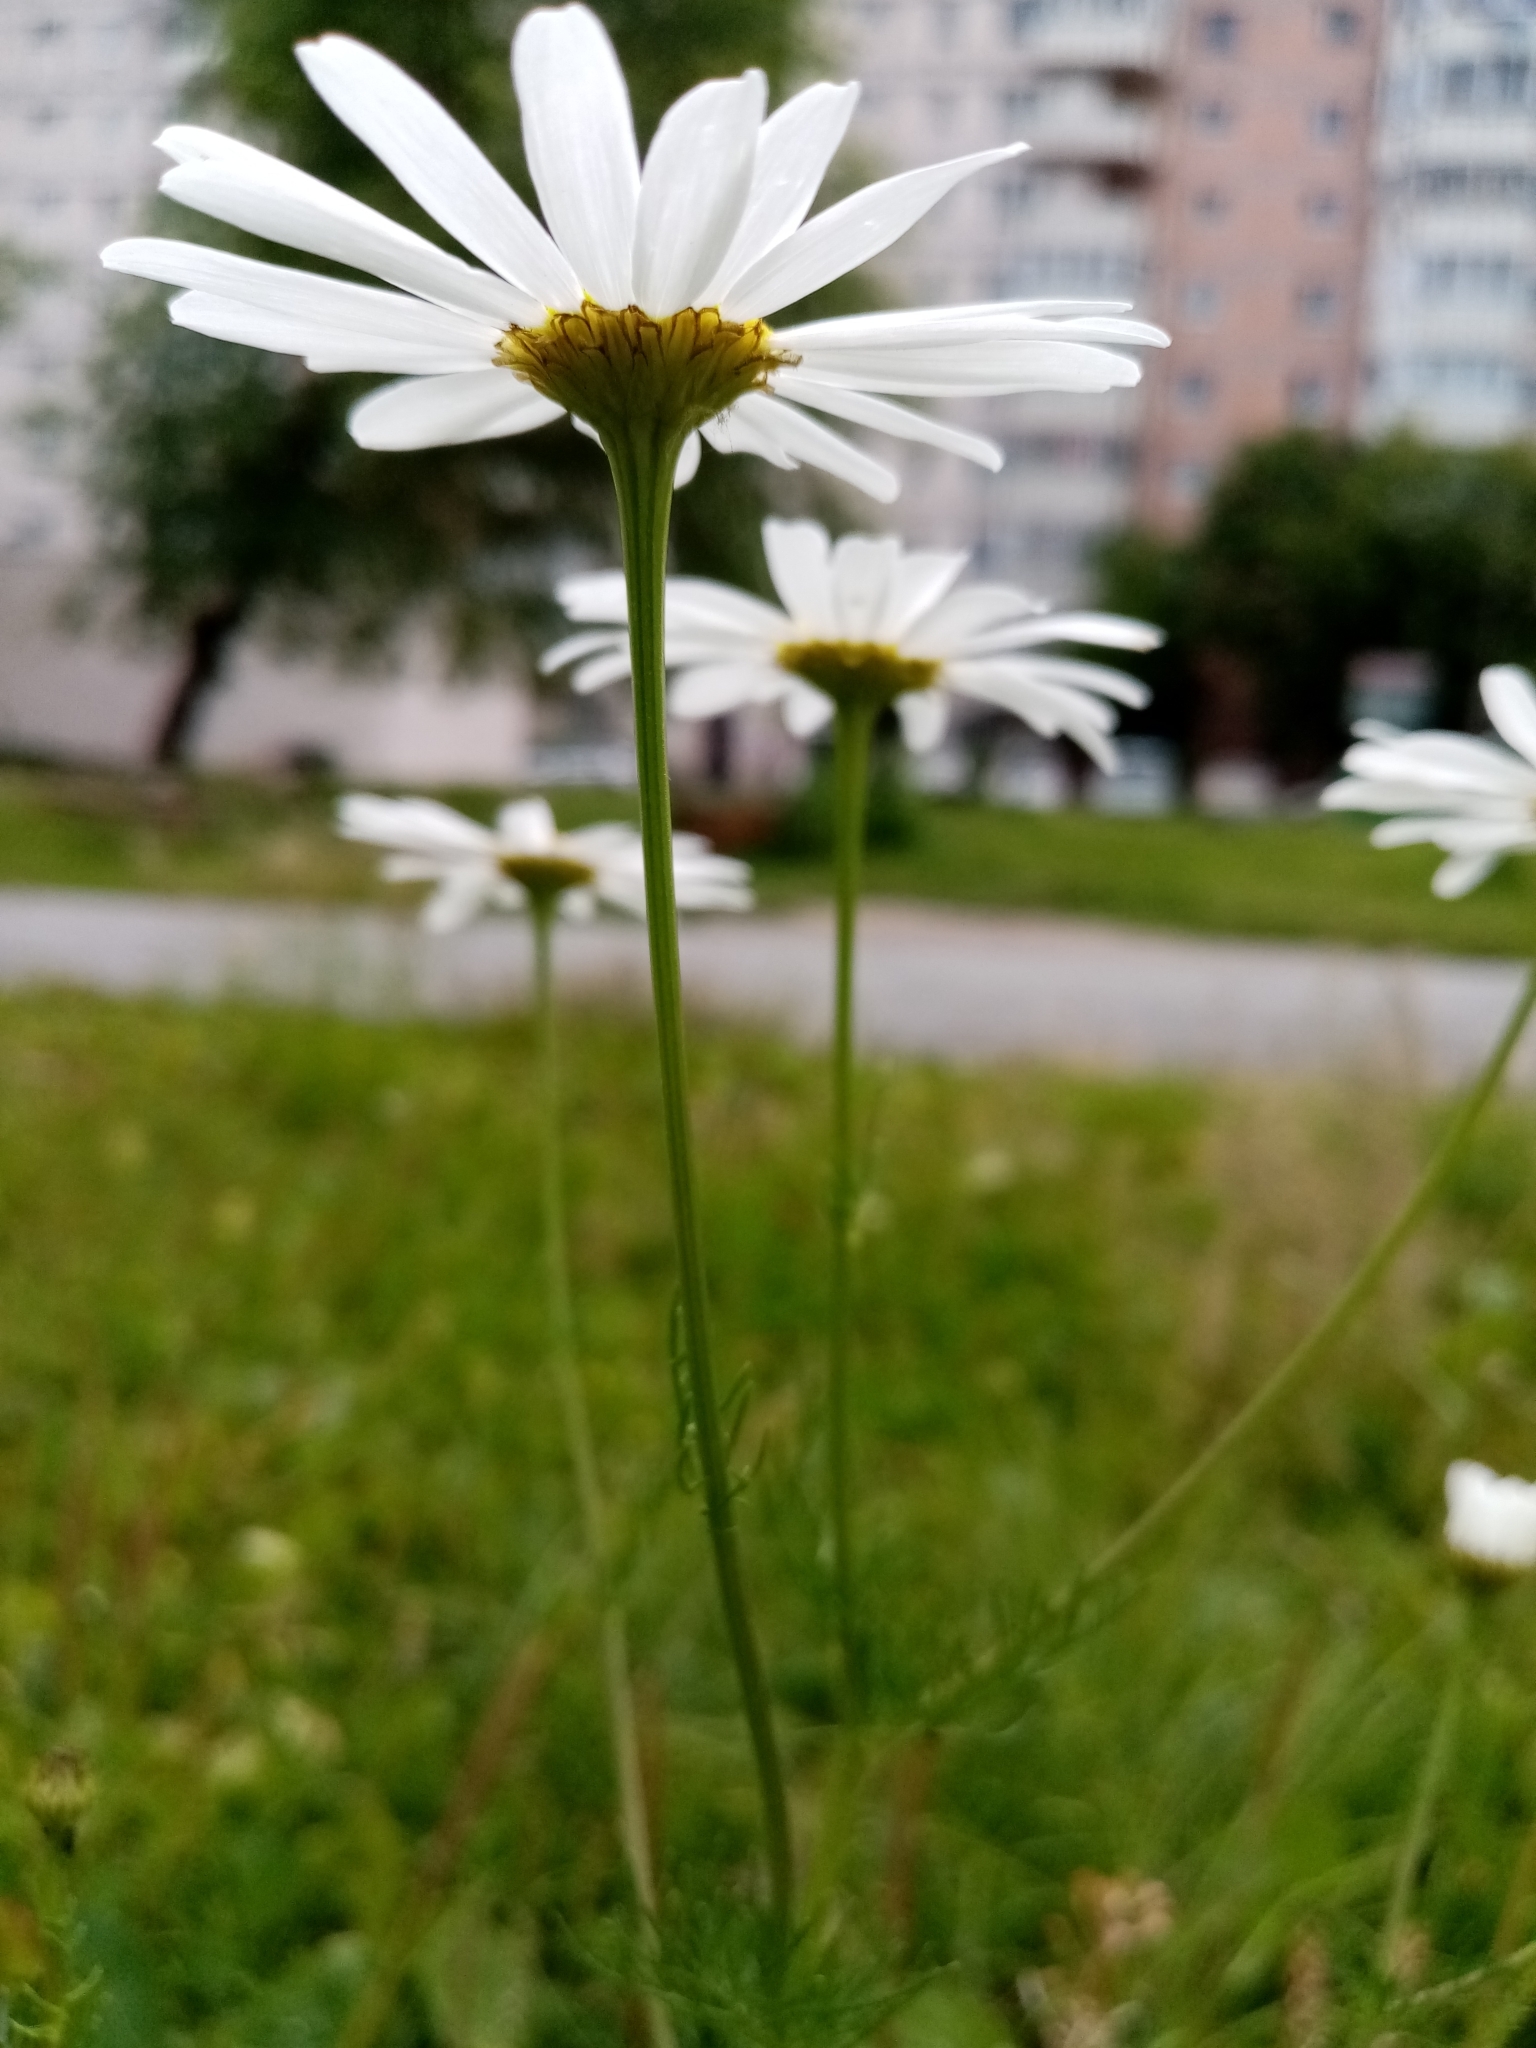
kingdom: Plantae
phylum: Tracheophyta
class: Magnoliopsida
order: Asterales
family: Asteraceae
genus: Tripleurospermum
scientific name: Tripleurospermum inodorum
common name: Scentless mayweed
